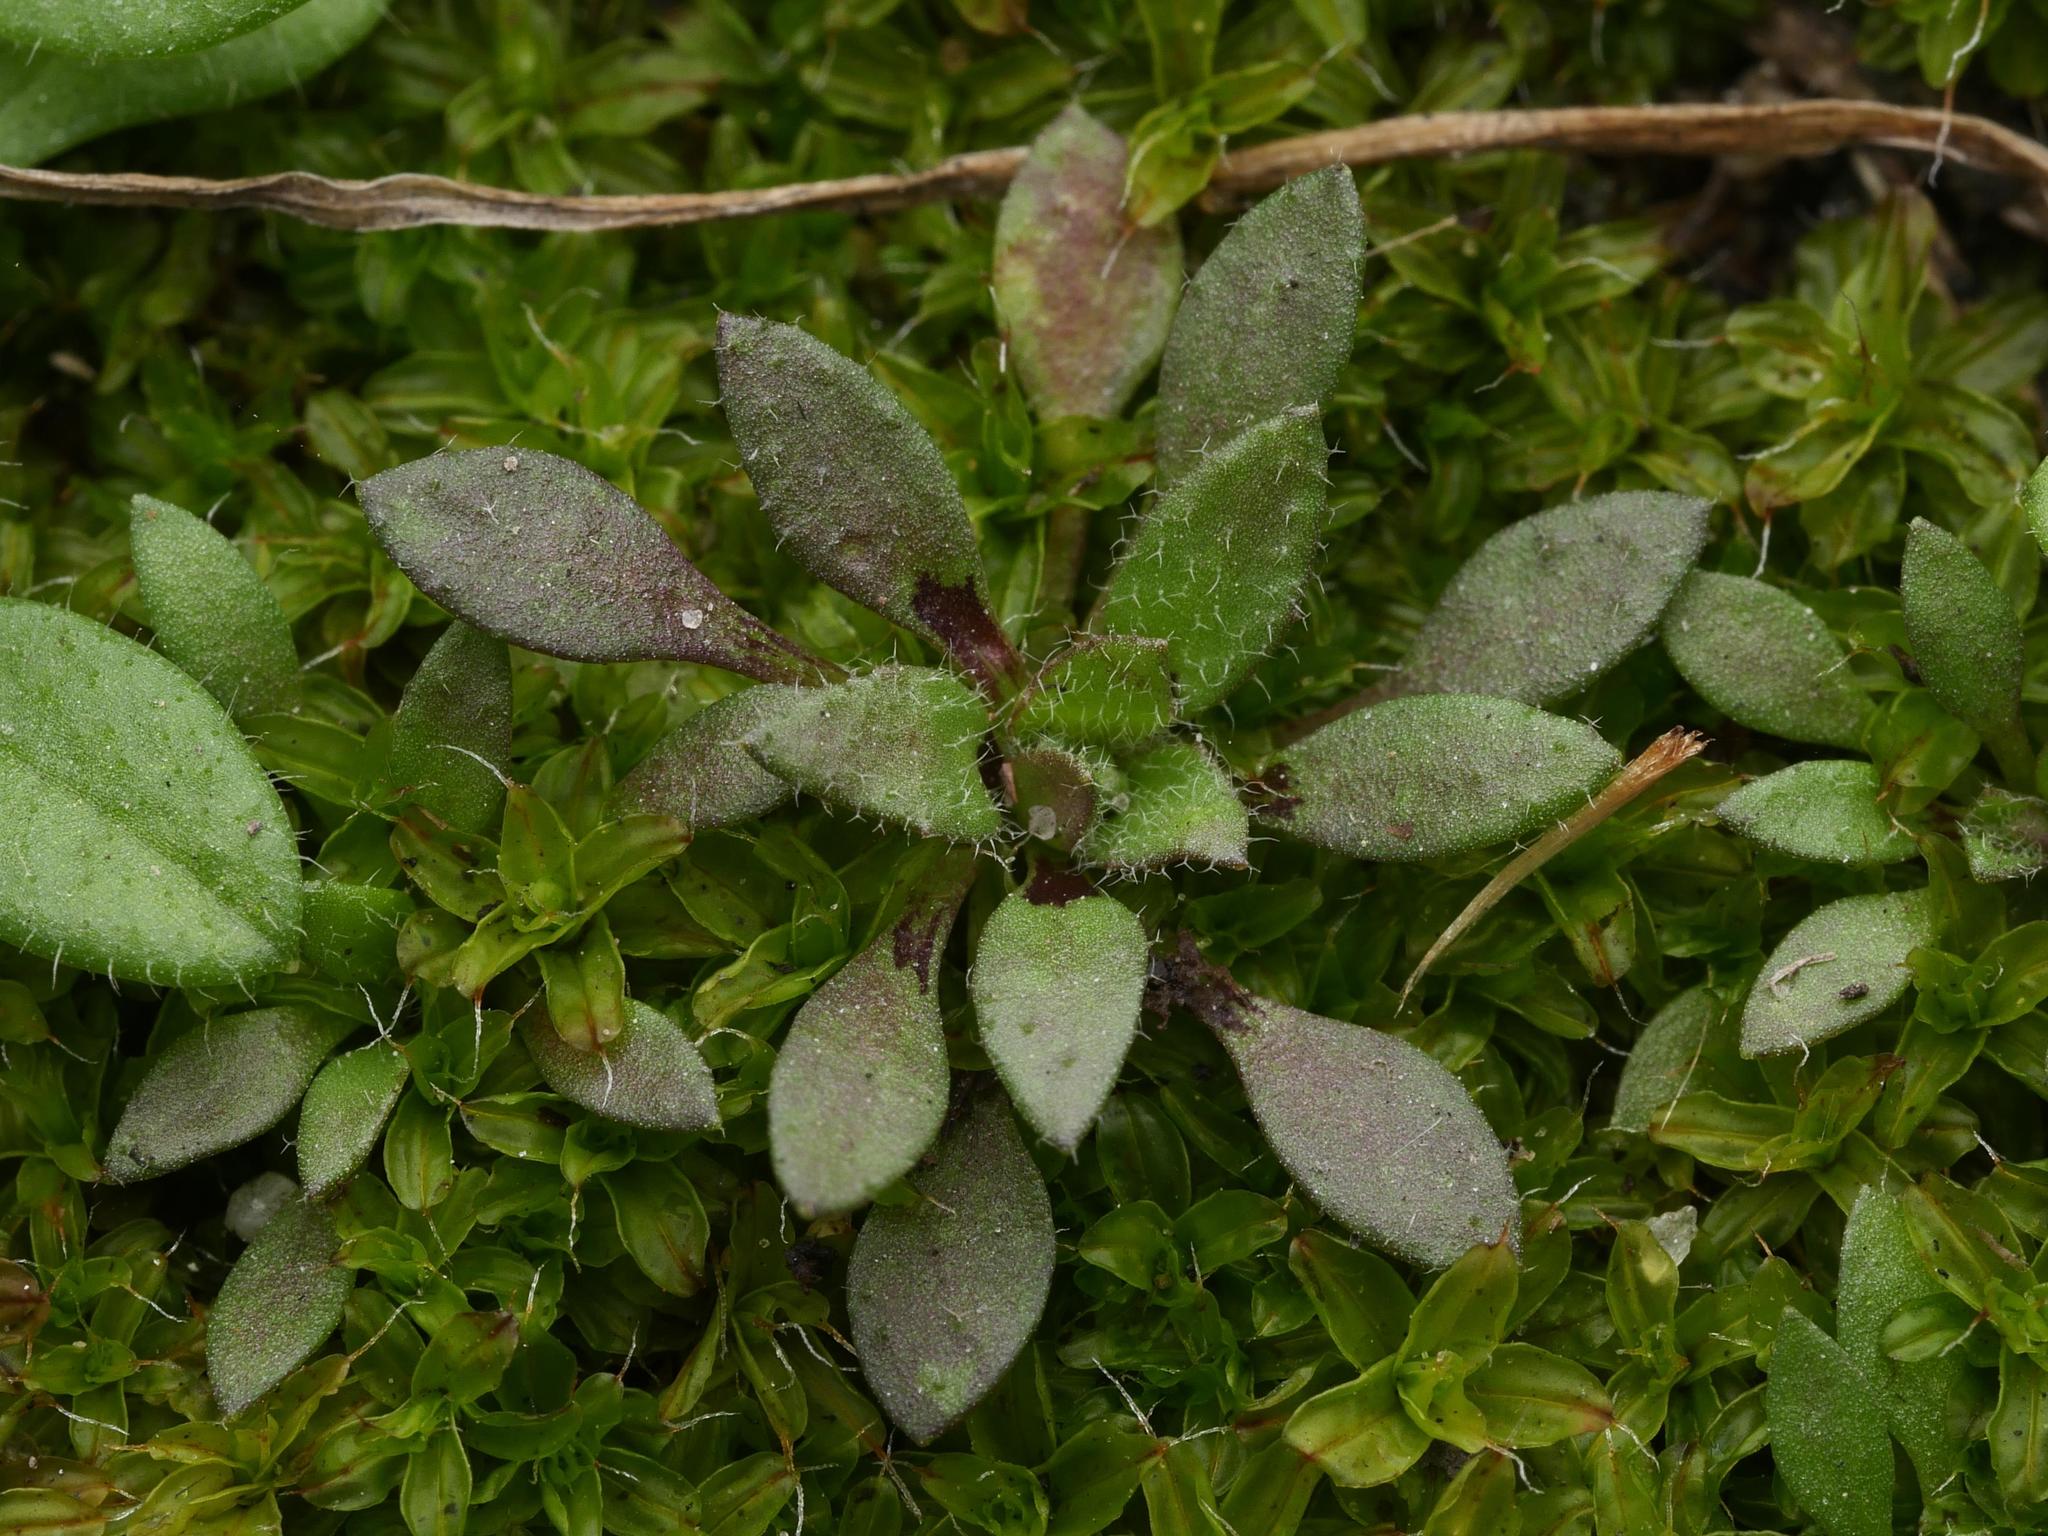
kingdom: Plantae
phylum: Tracheophyta
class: Magnoliopsida
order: Brassicales
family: Brassicaceae
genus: Draba
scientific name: Draba verna
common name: Spring draba
